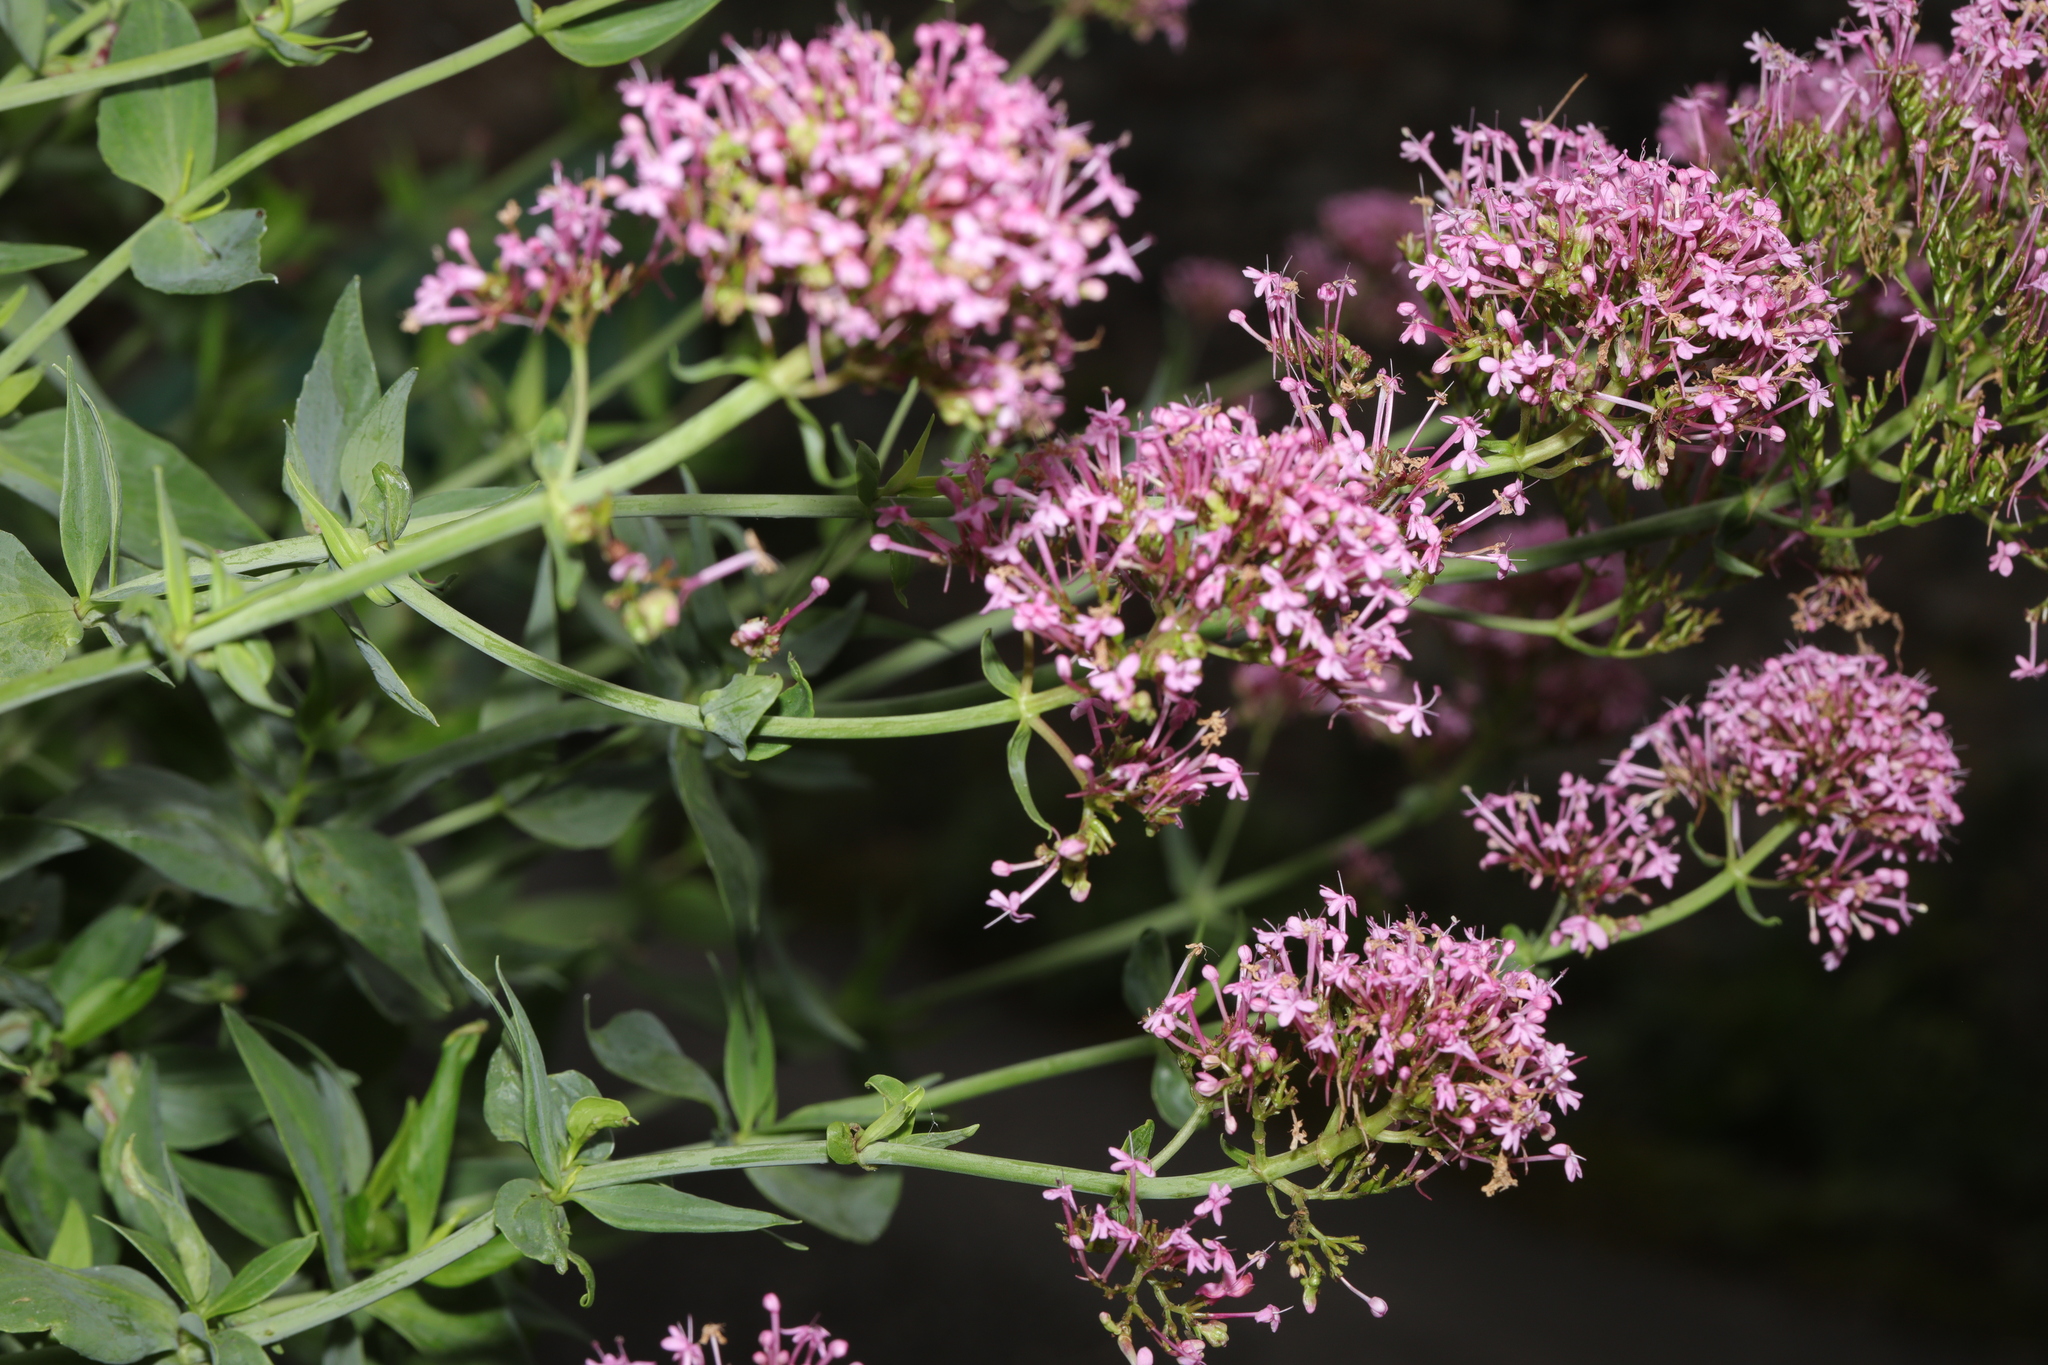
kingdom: Plantae
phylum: Tracheophyta
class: Magnoliopsida
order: Dipsacales
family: Caprifoliaceae
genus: Centranthus
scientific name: Centranthus ruber
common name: Red valerian
